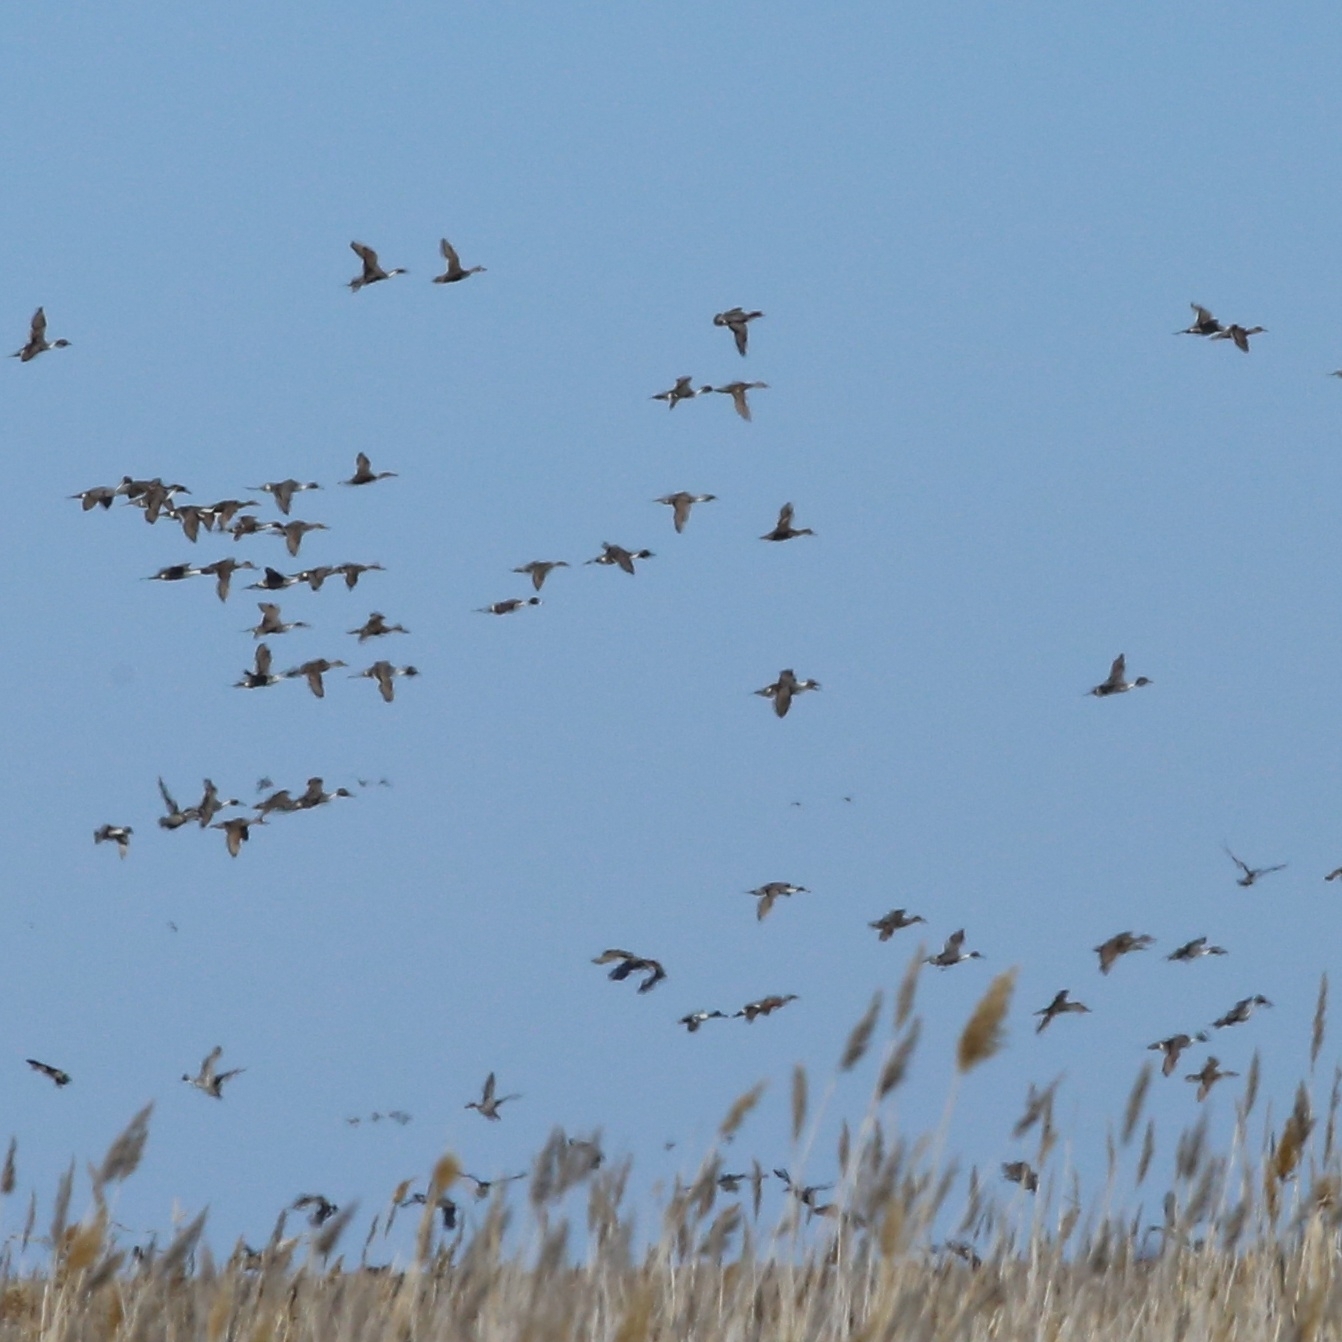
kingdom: Animalia
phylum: Chordata
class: Aves
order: Anseriformes
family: Anatidae
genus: Anas
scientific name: Anas acuta
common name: Northern pintail
